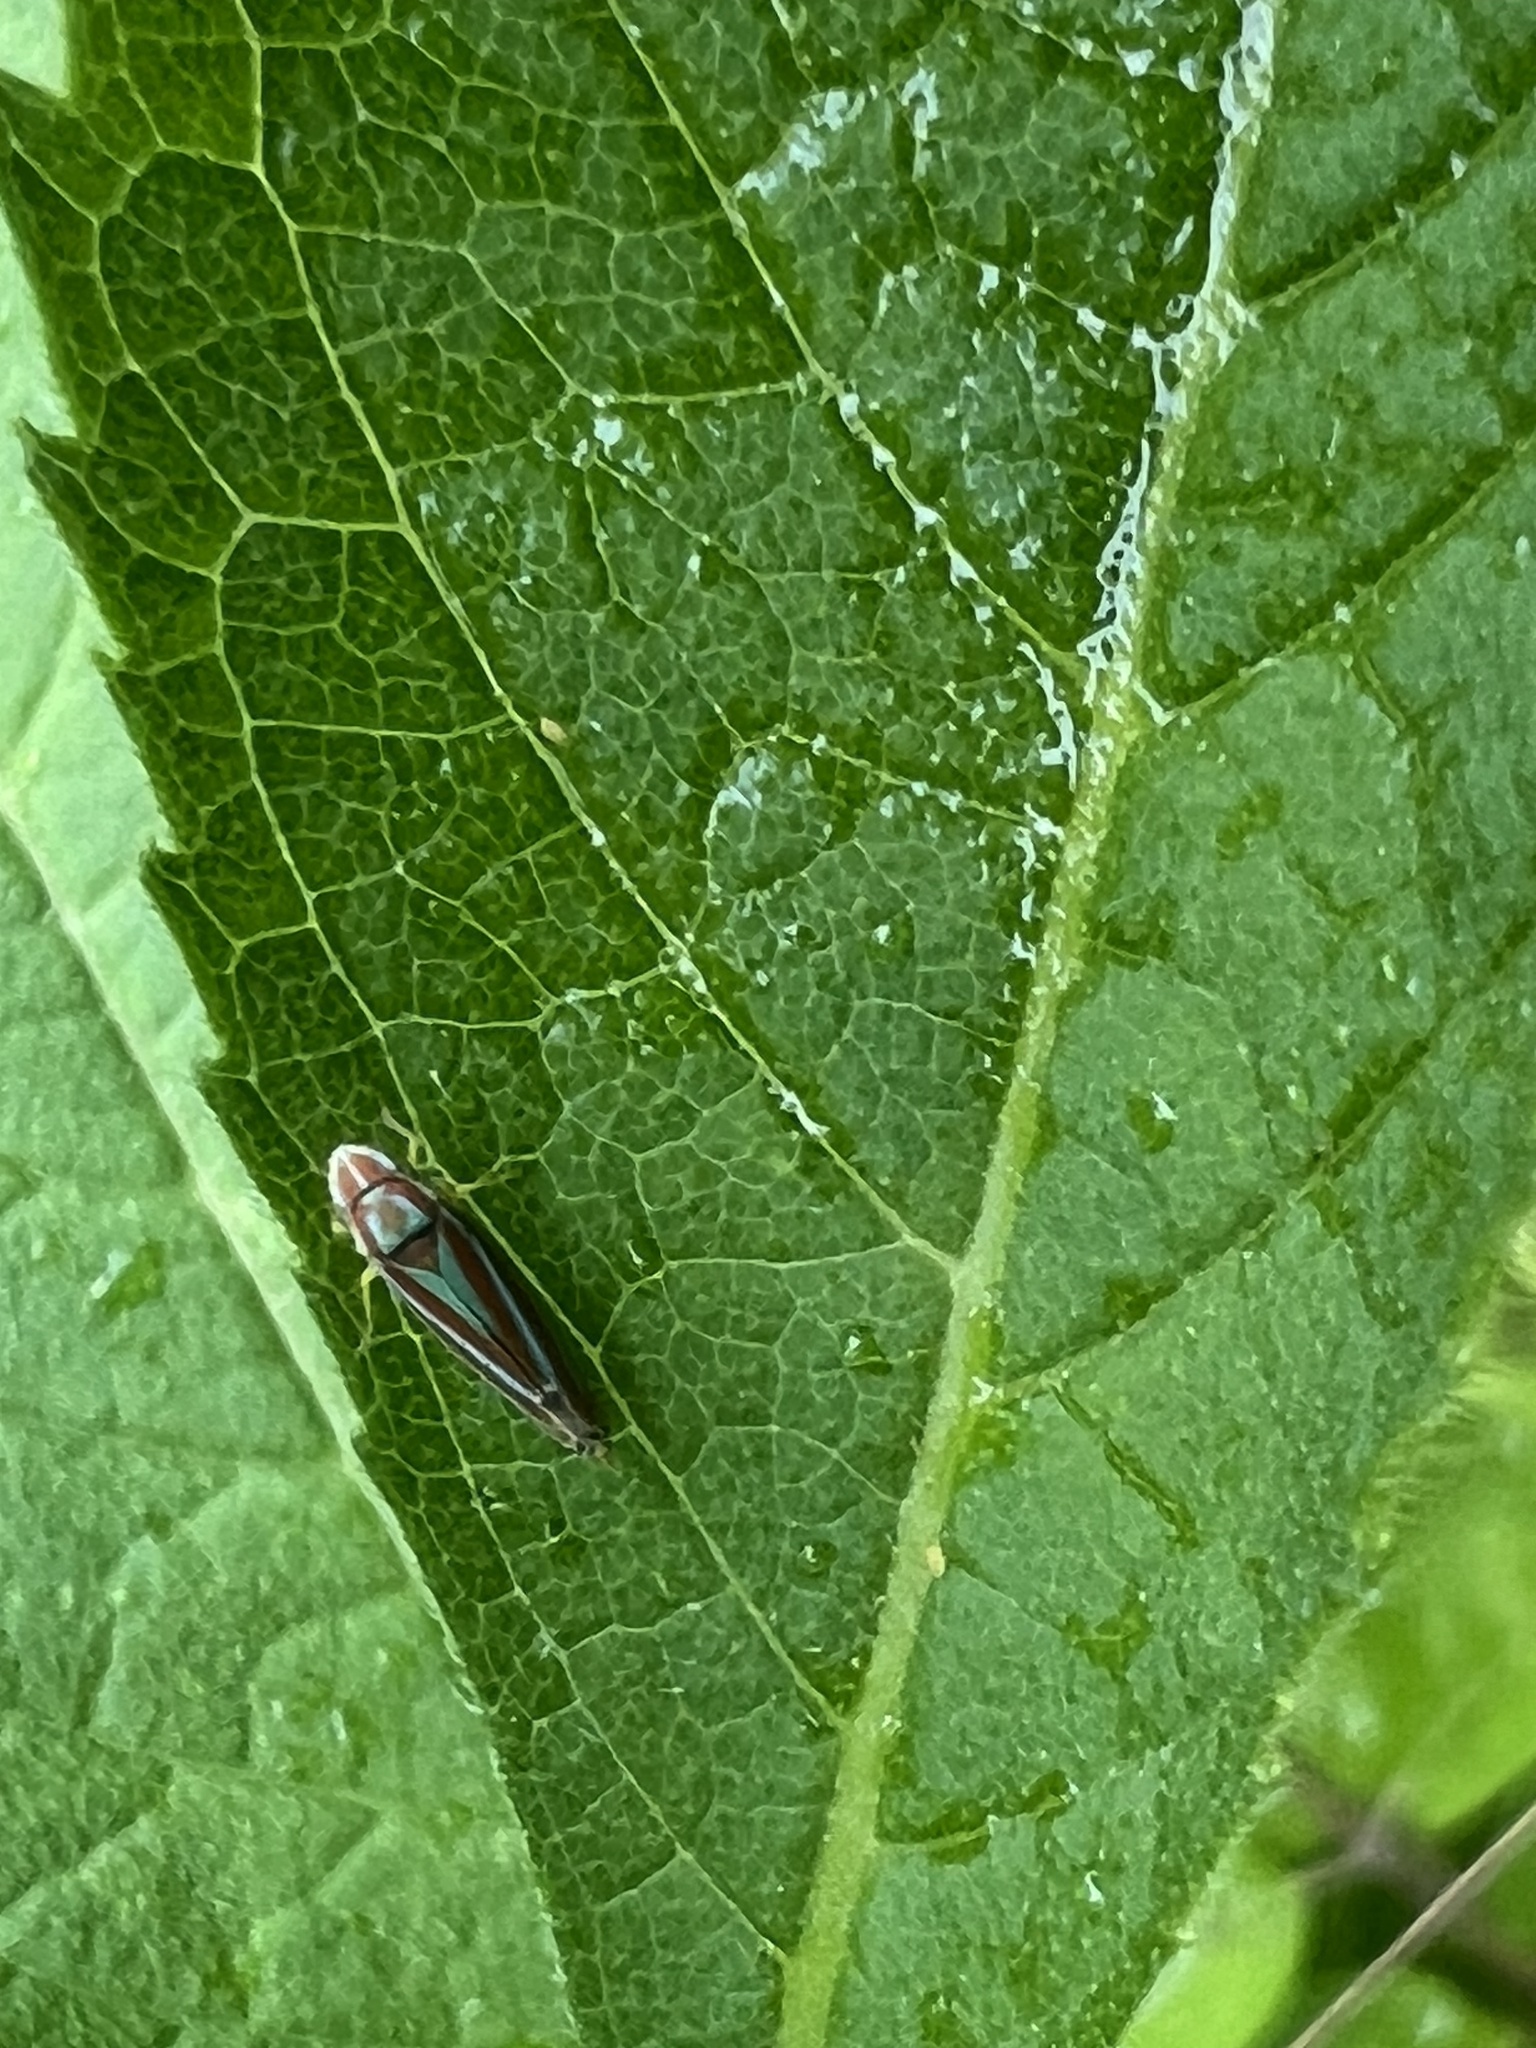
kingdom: Animalia
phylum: Arthropoda
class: Insecta
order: Hemiptera
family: Cicadellidae
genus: Graphocephala
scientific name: Graphocephala versuta
